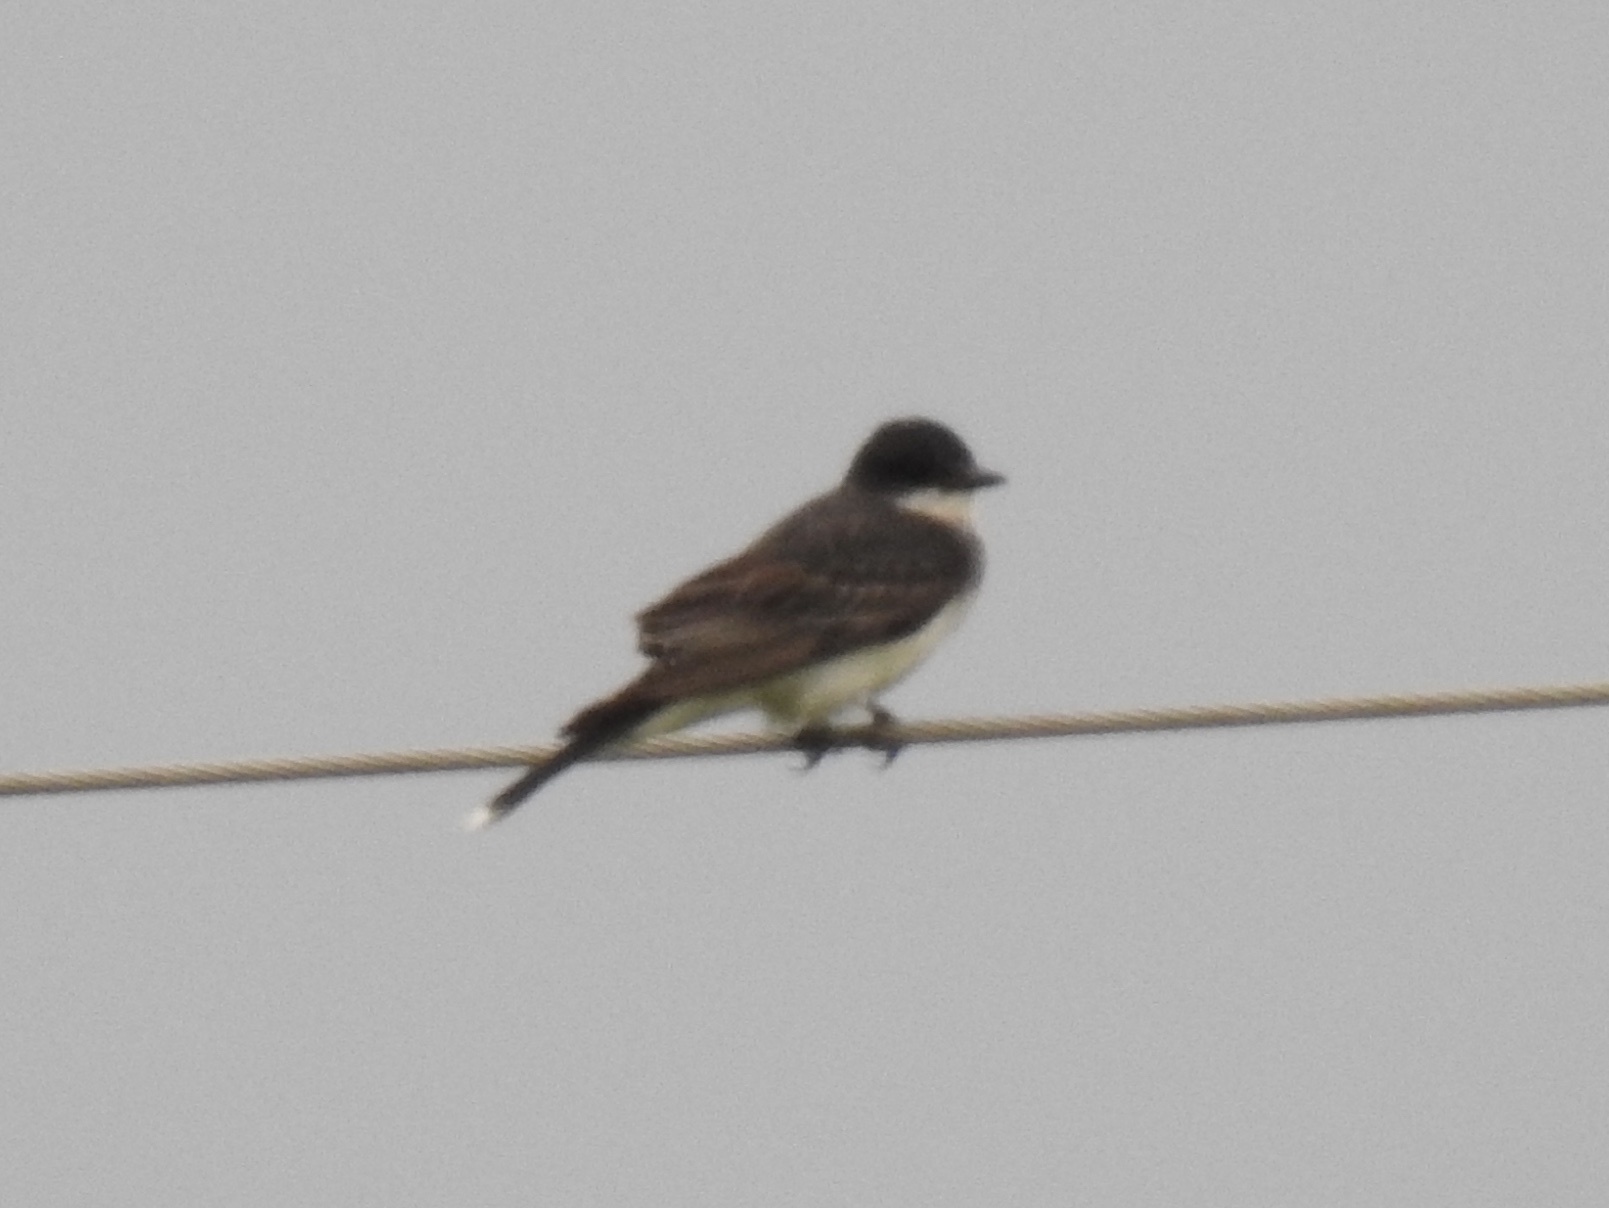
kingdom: Animalia
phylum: Chordata
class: Aves
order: Passeriformes
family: Tyrannidae
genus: Tyrannus
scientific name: Tyrannus tyrannus
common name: Eastern kingbird
